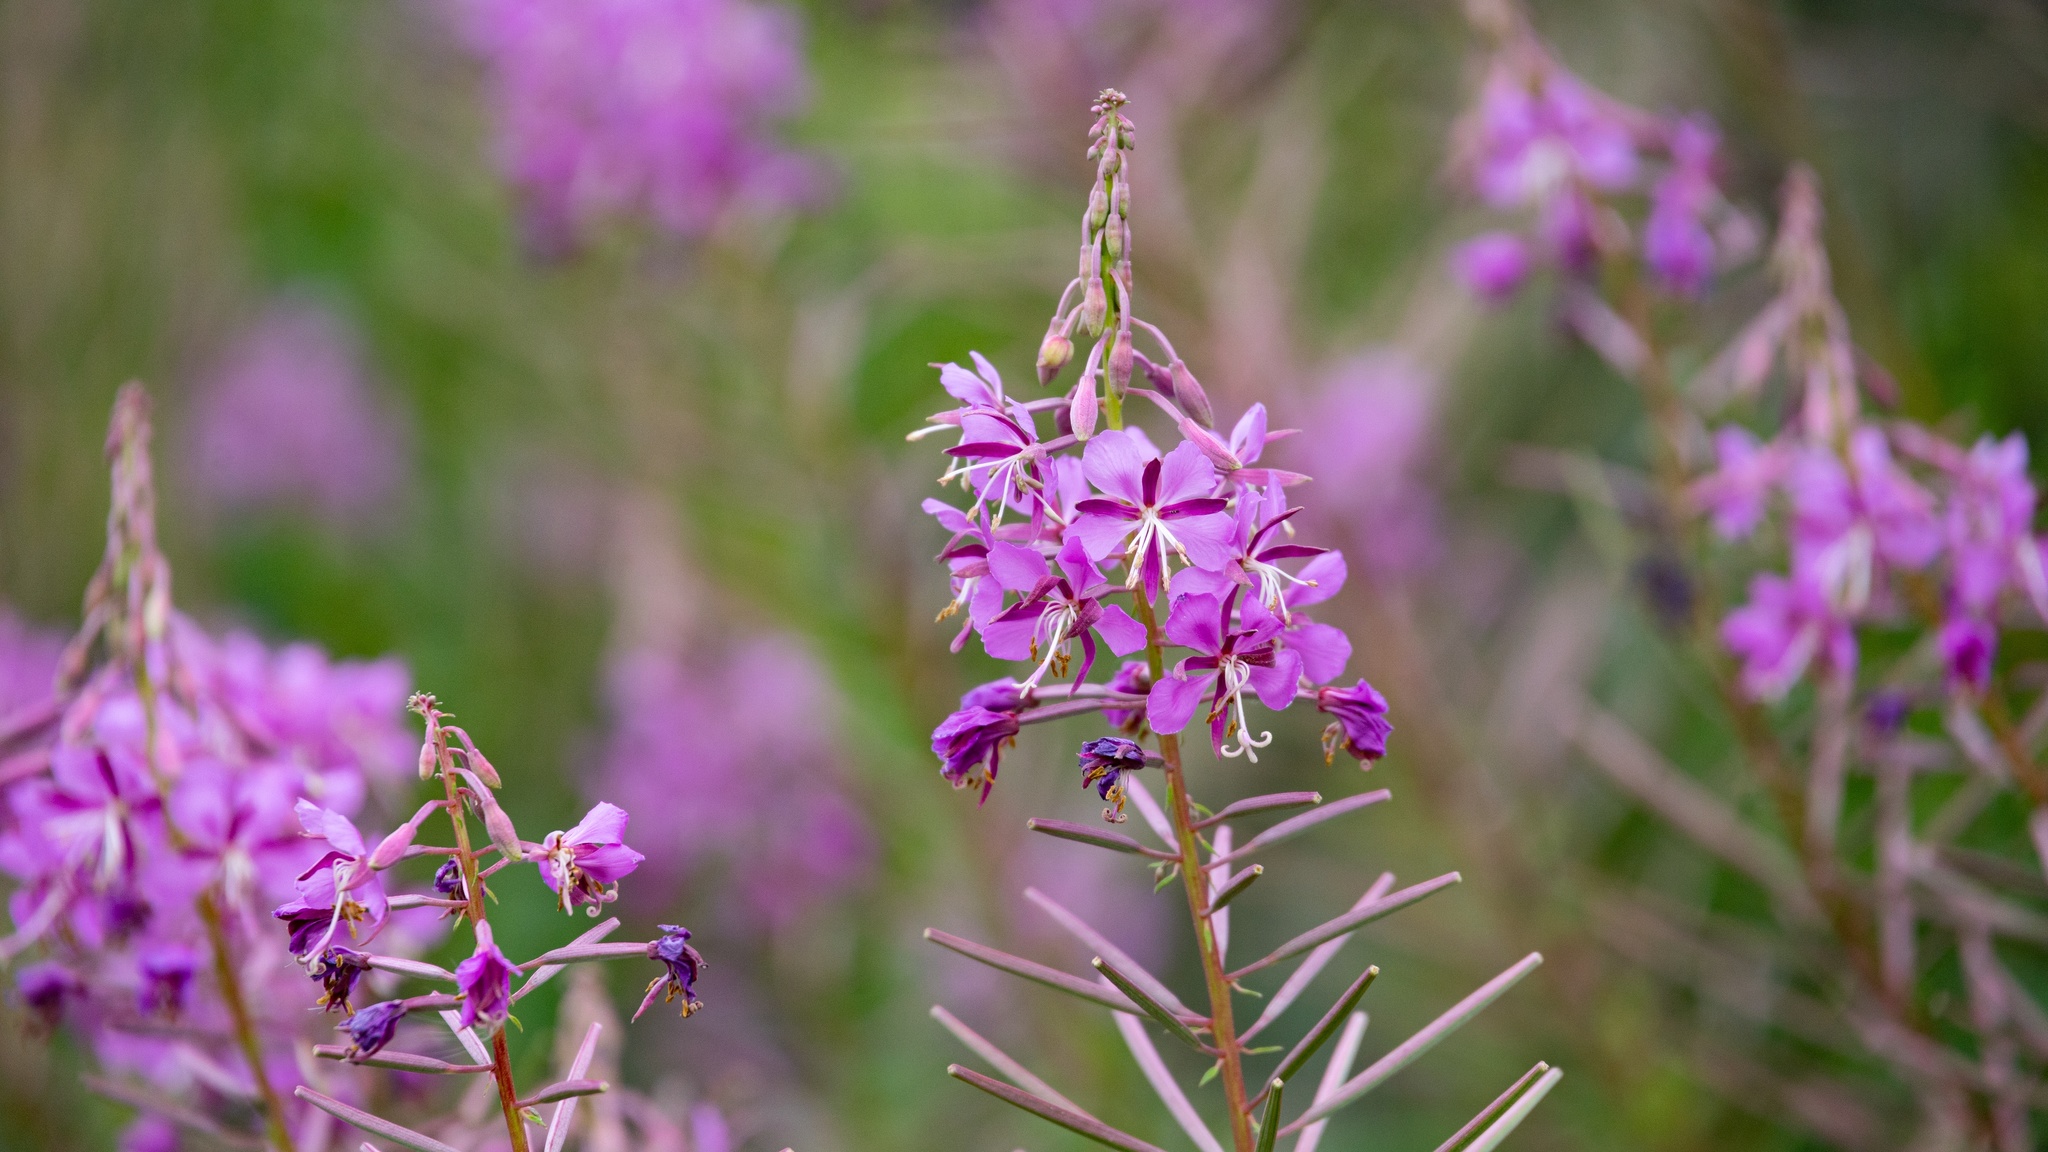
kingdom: Plantae
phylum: Tracheophyta
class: Magnoliopsida
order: Myrtales
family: Onagraceae
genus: Chamaenerion
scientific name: Chamaenerion angustifolium
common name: Fireweed
